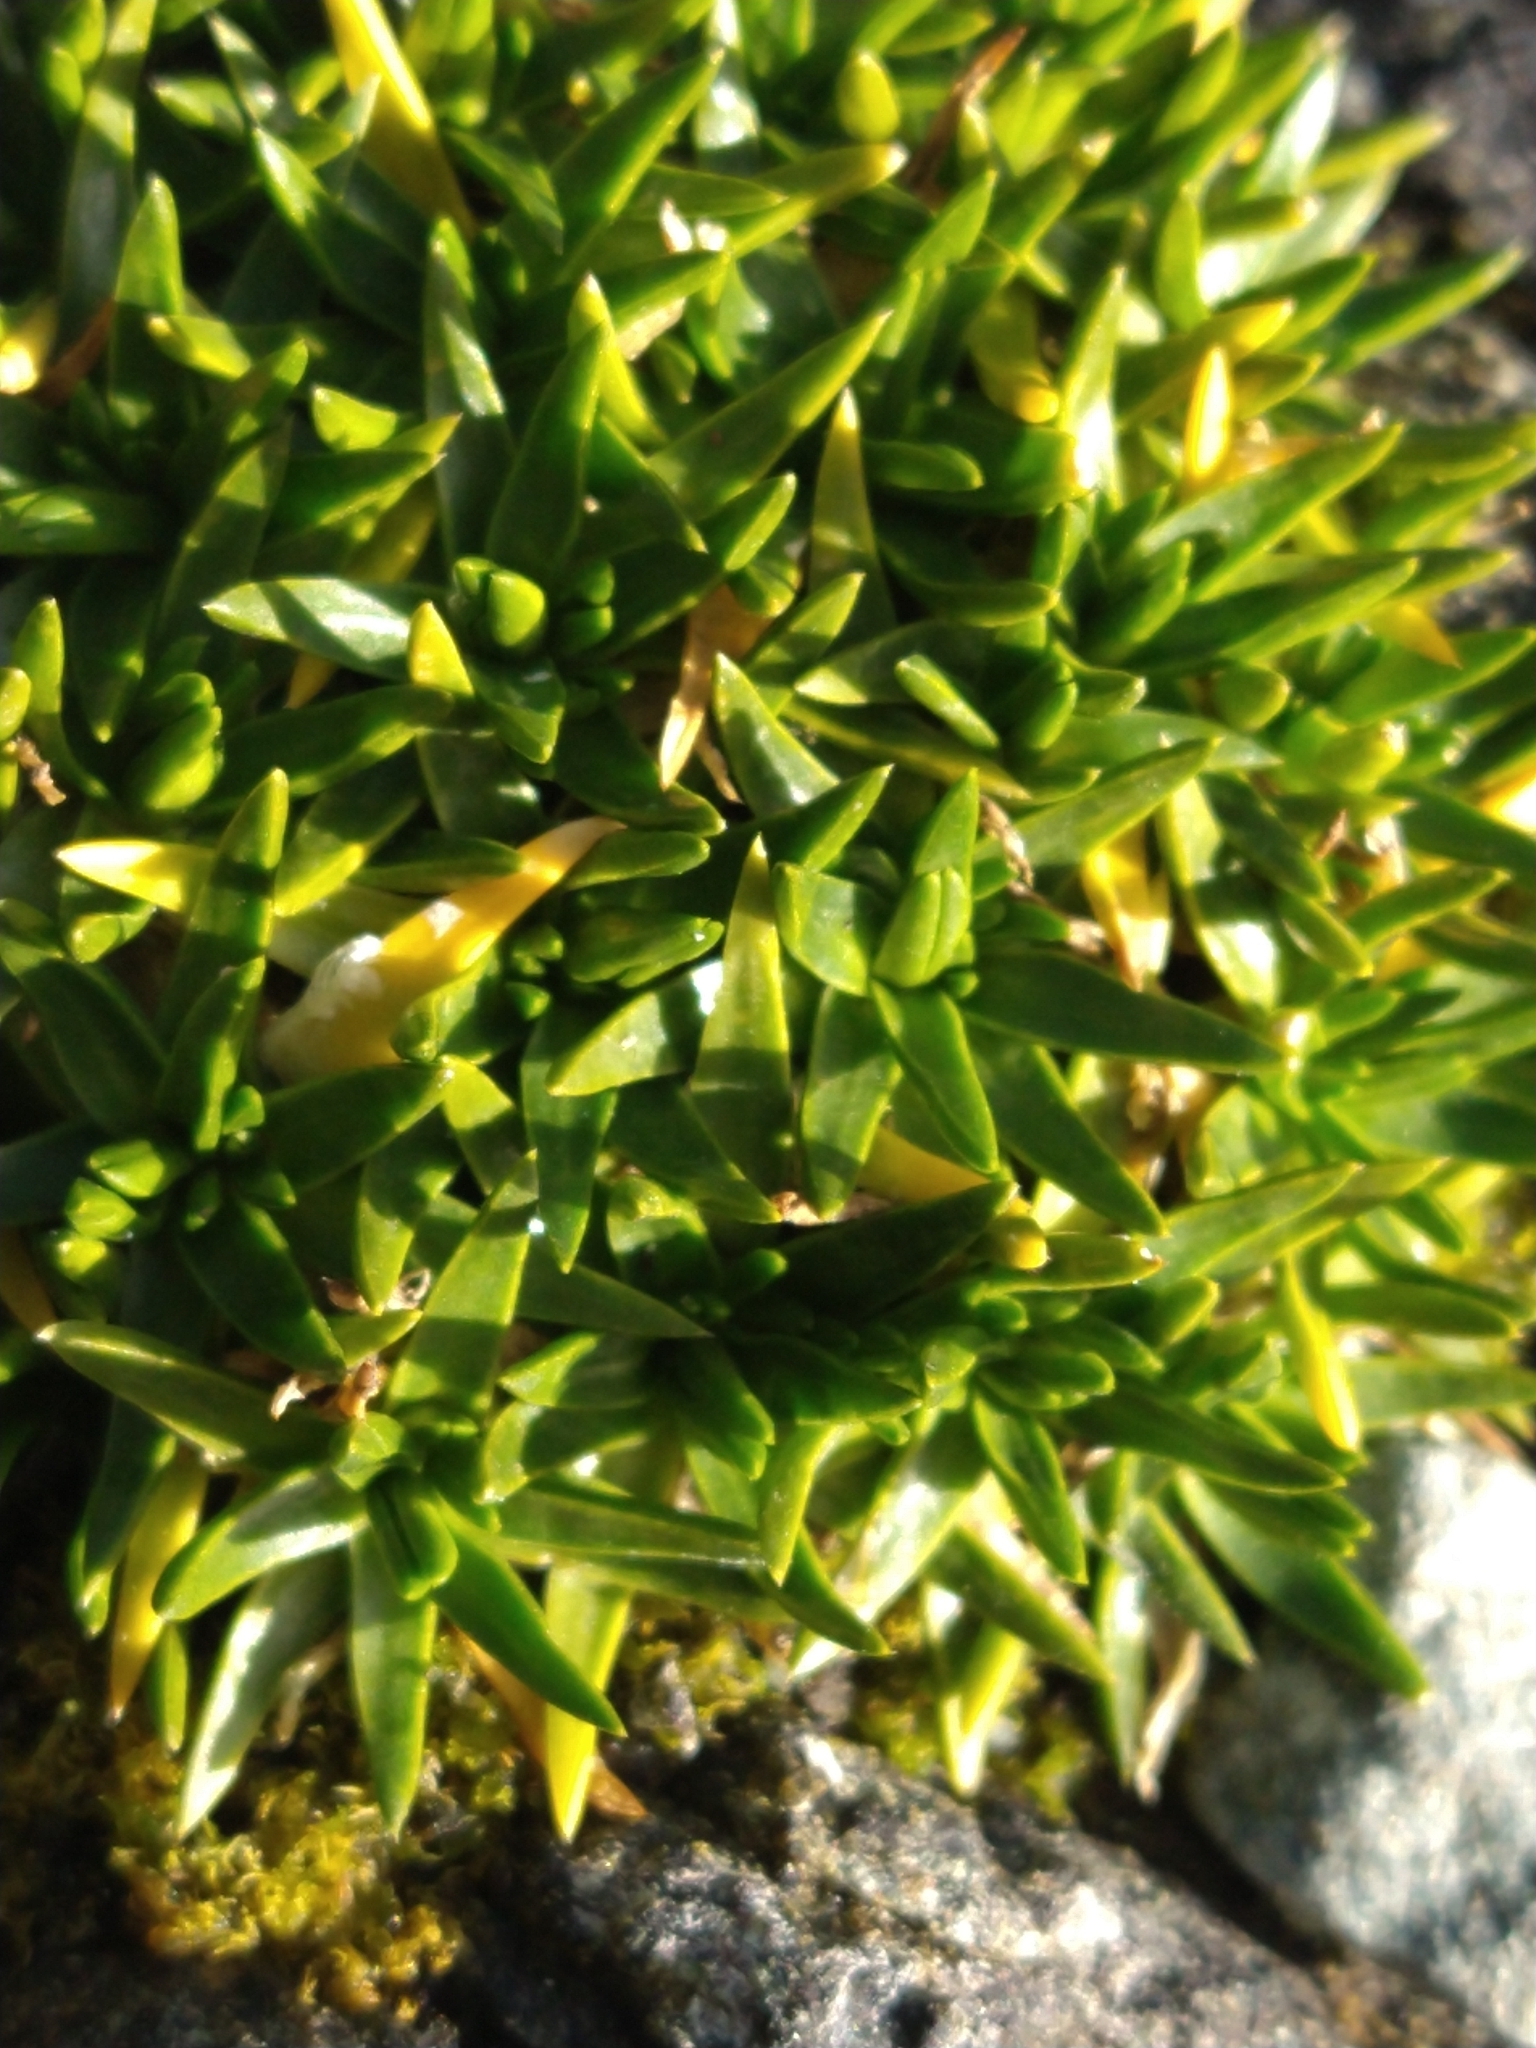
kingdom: Plantae
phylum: Tracheophyta
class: Magnoliopsida
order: Caryophyllales
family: Caryophyllaceae
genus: Colobanthus
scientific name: Colobanthus quitensis
